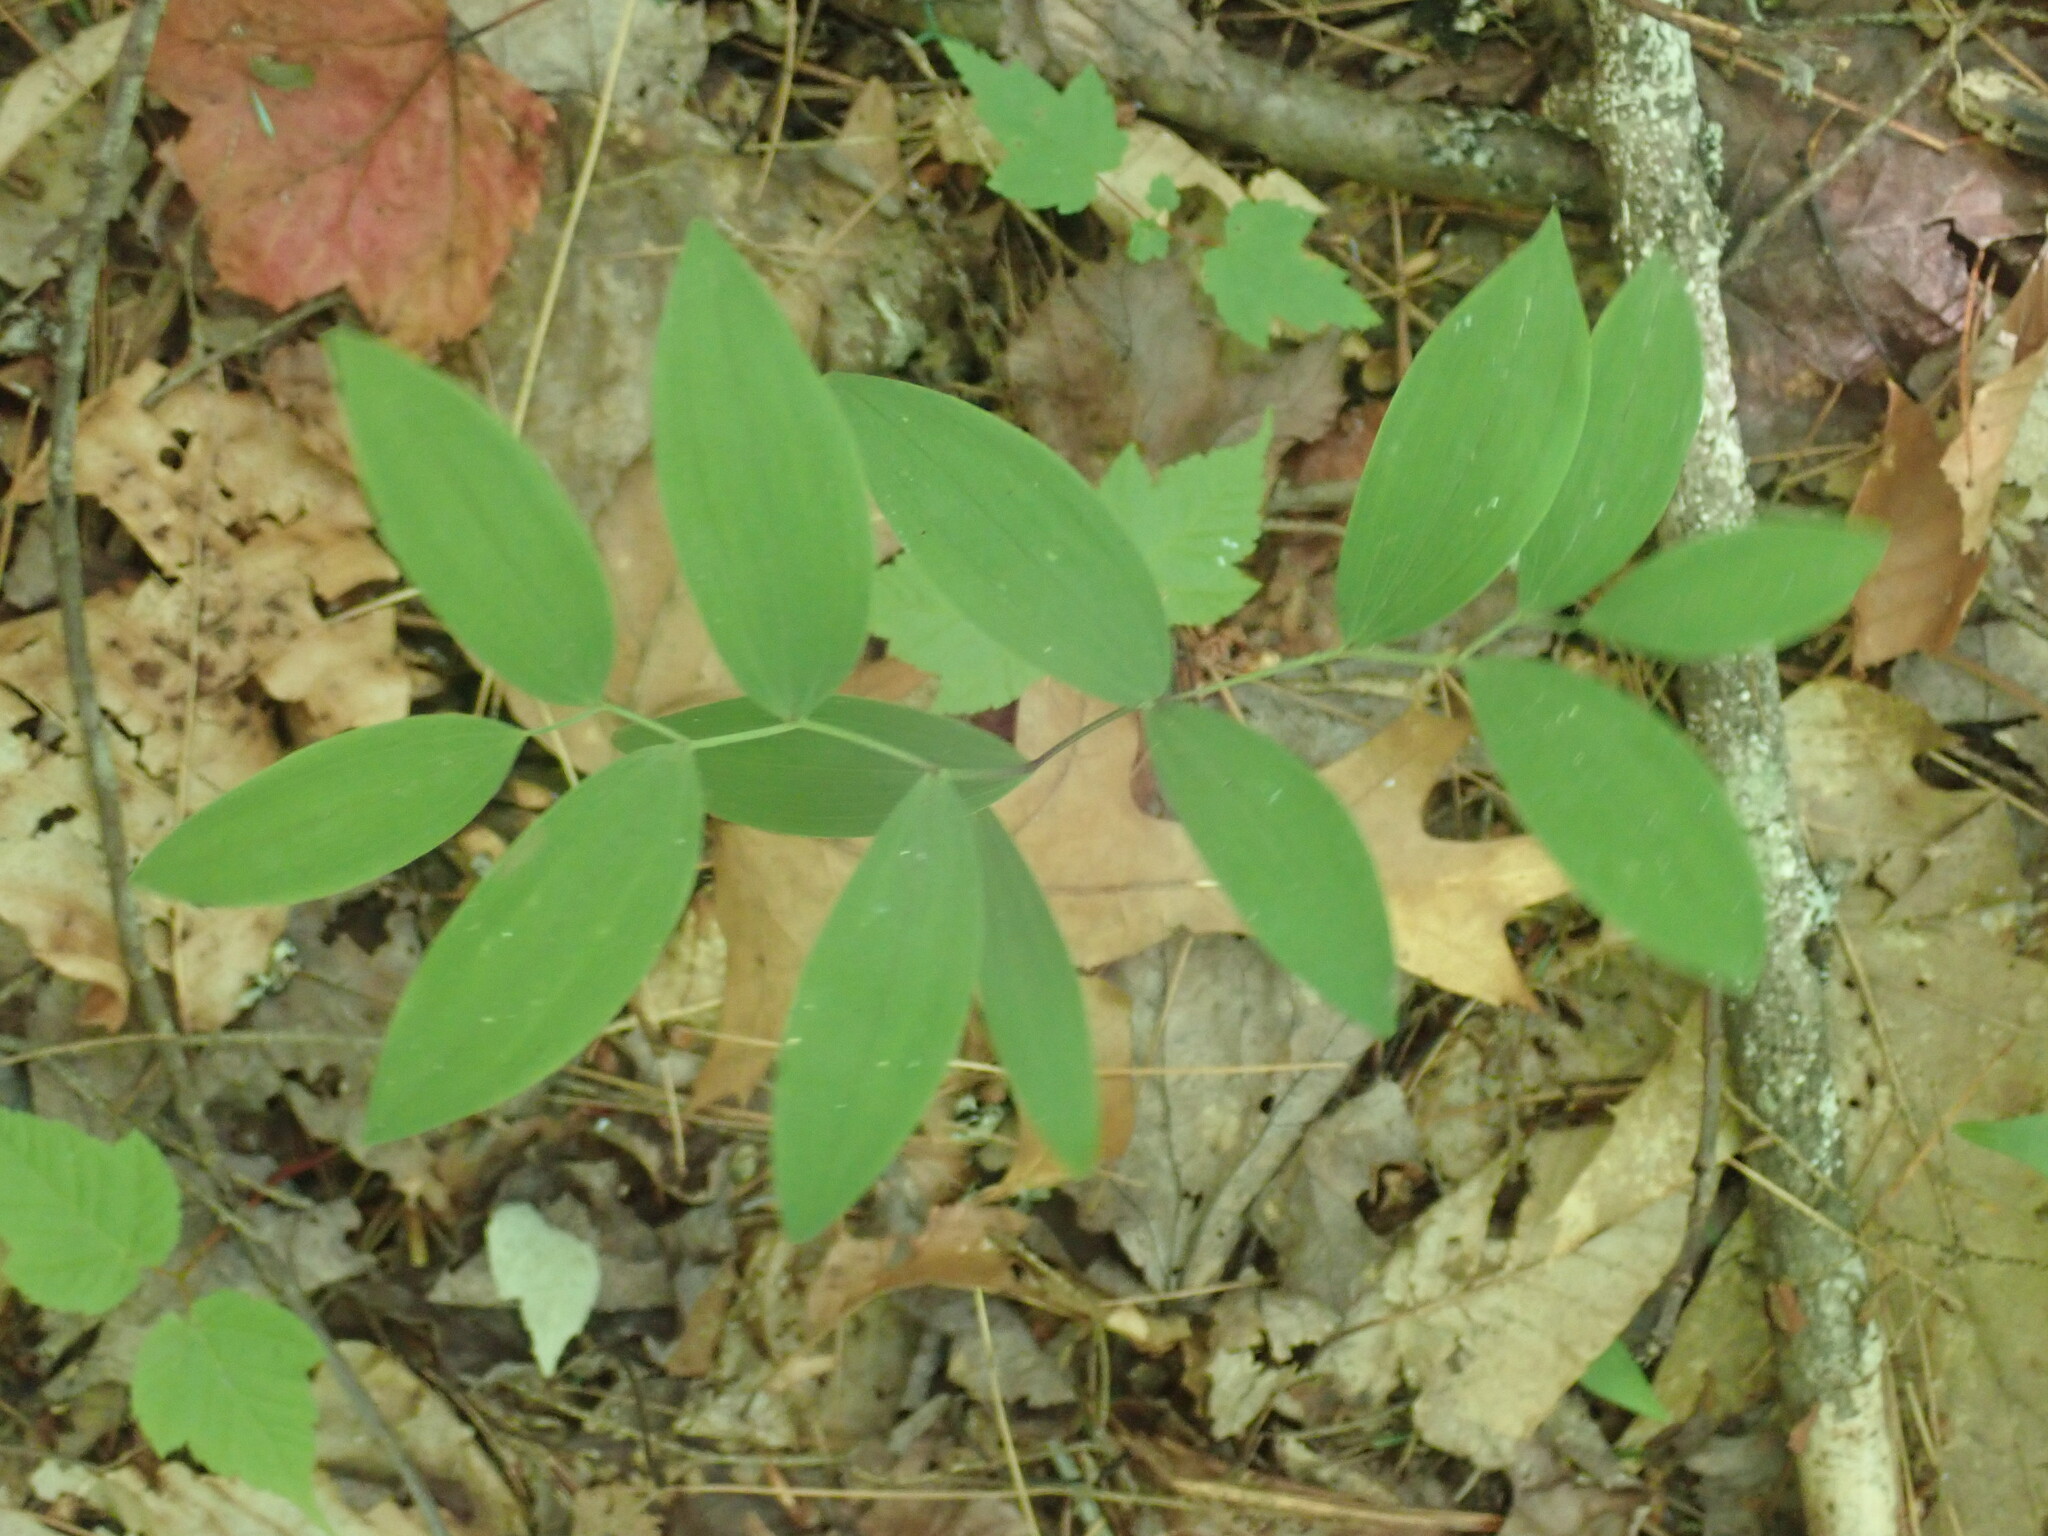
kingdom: Plantae
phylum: Tracheophyta
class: Liliopsida
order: Liliales
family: Colchicaceae
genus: Uvularia
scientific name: Uvularia sessilifolia
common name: Straw-lily
